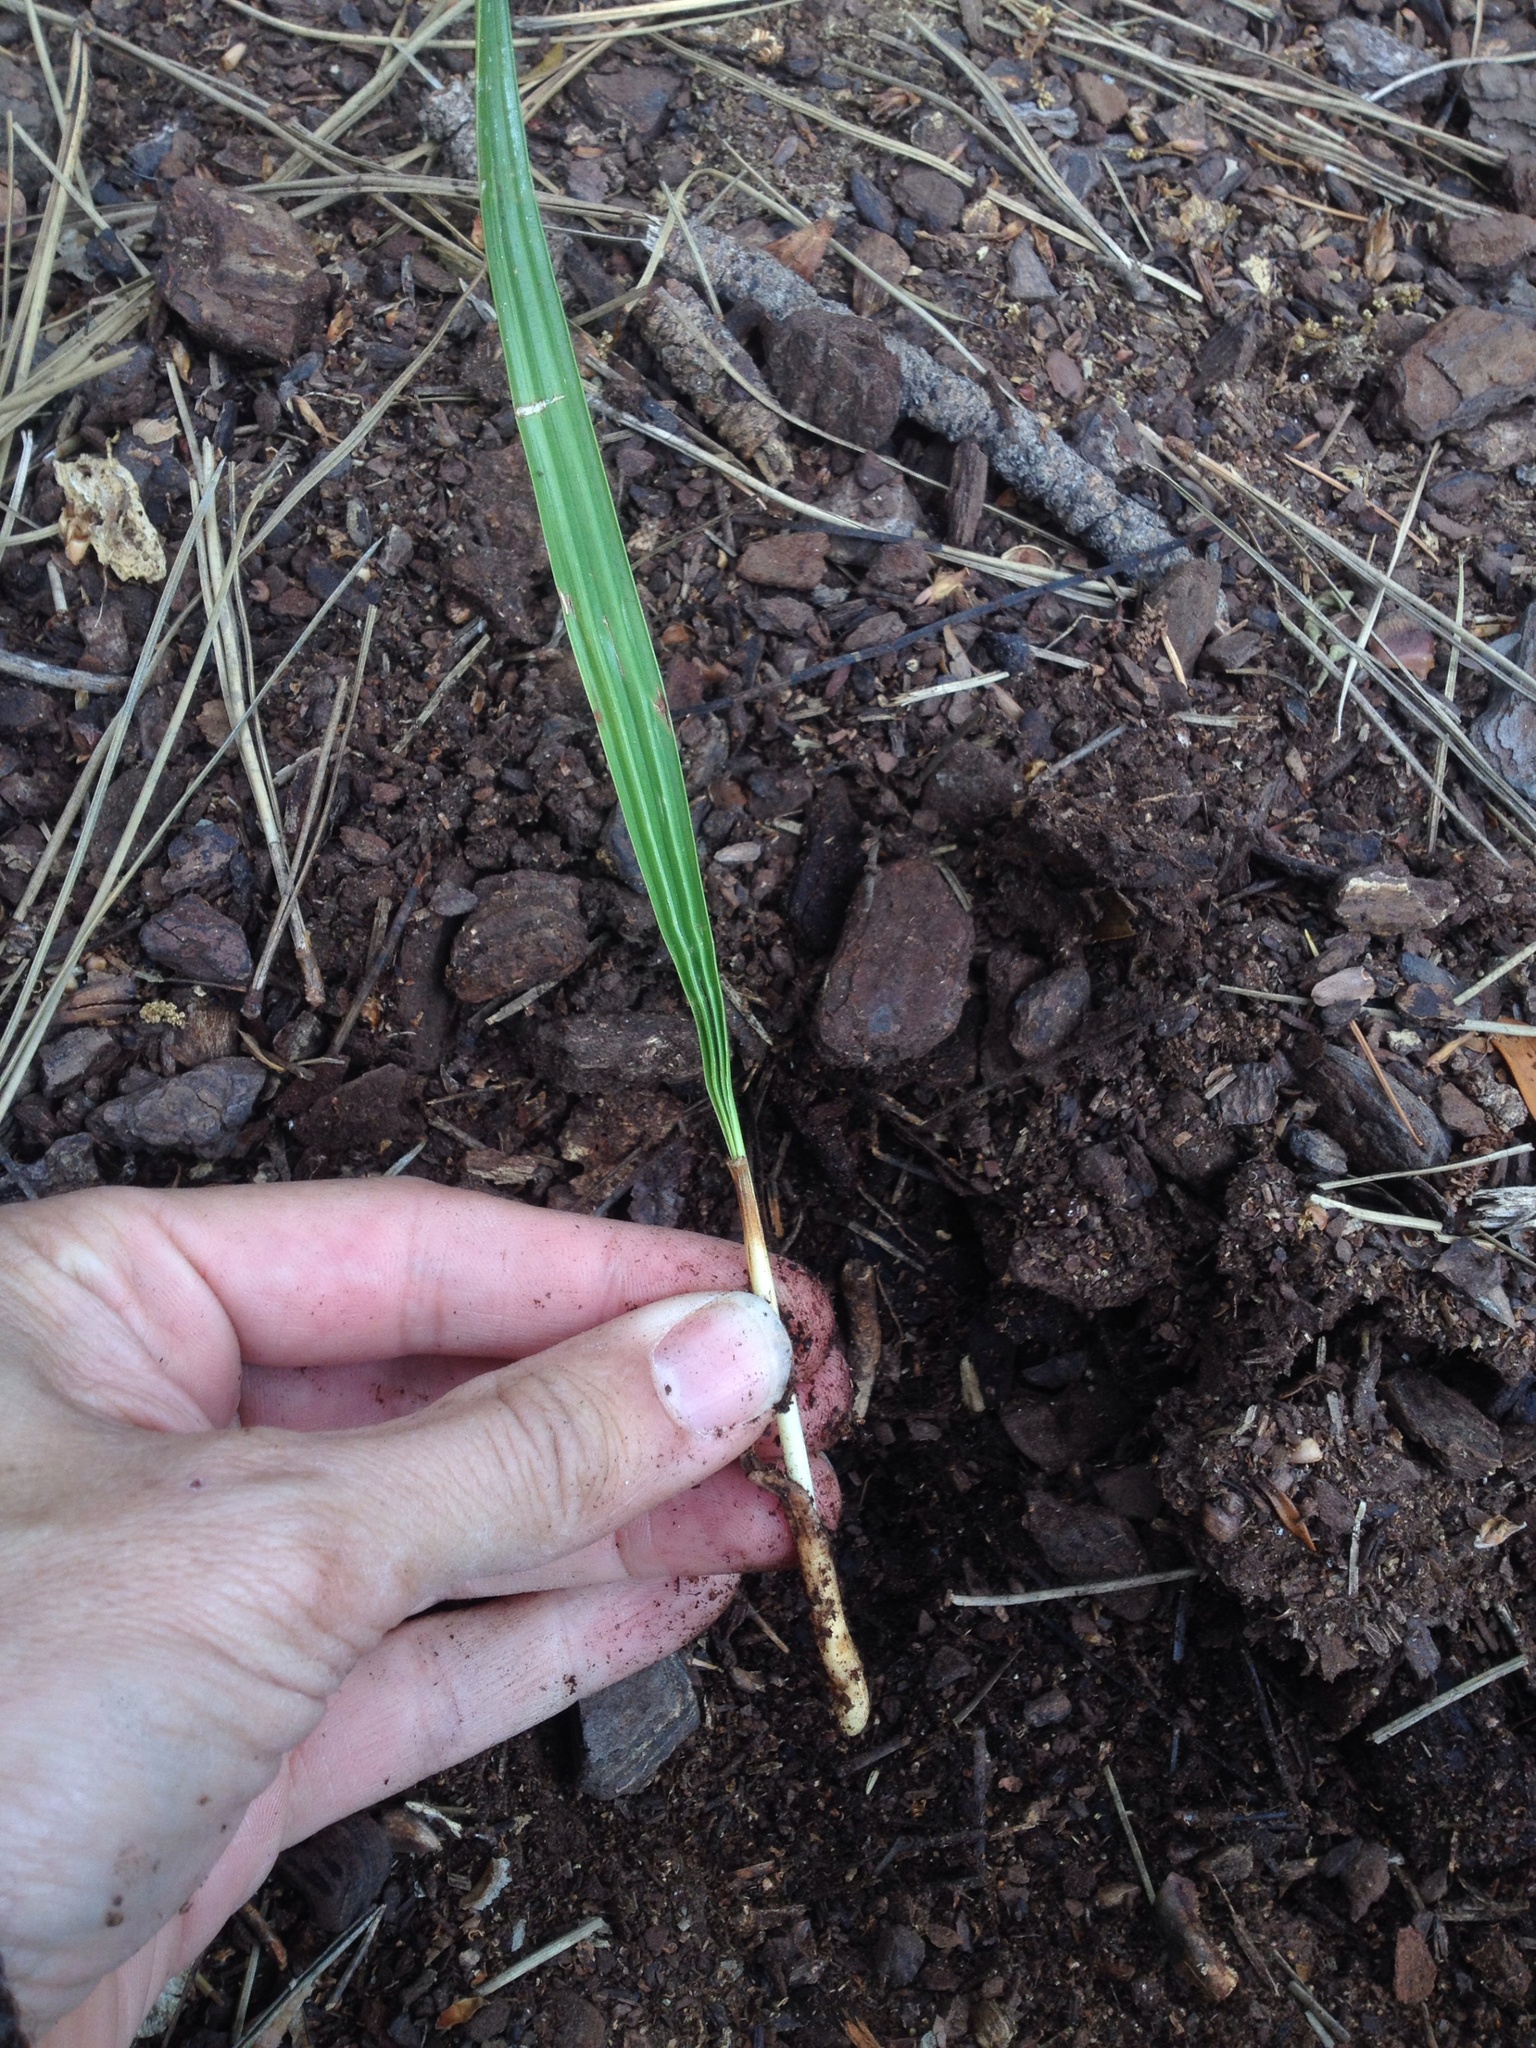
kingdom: Plantae
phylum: Tracheophyta
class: Liliopsida
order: Arecales
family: Arecaceae
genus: Phoenix
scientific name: Phoenix canariensis
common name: Canary island date palm
